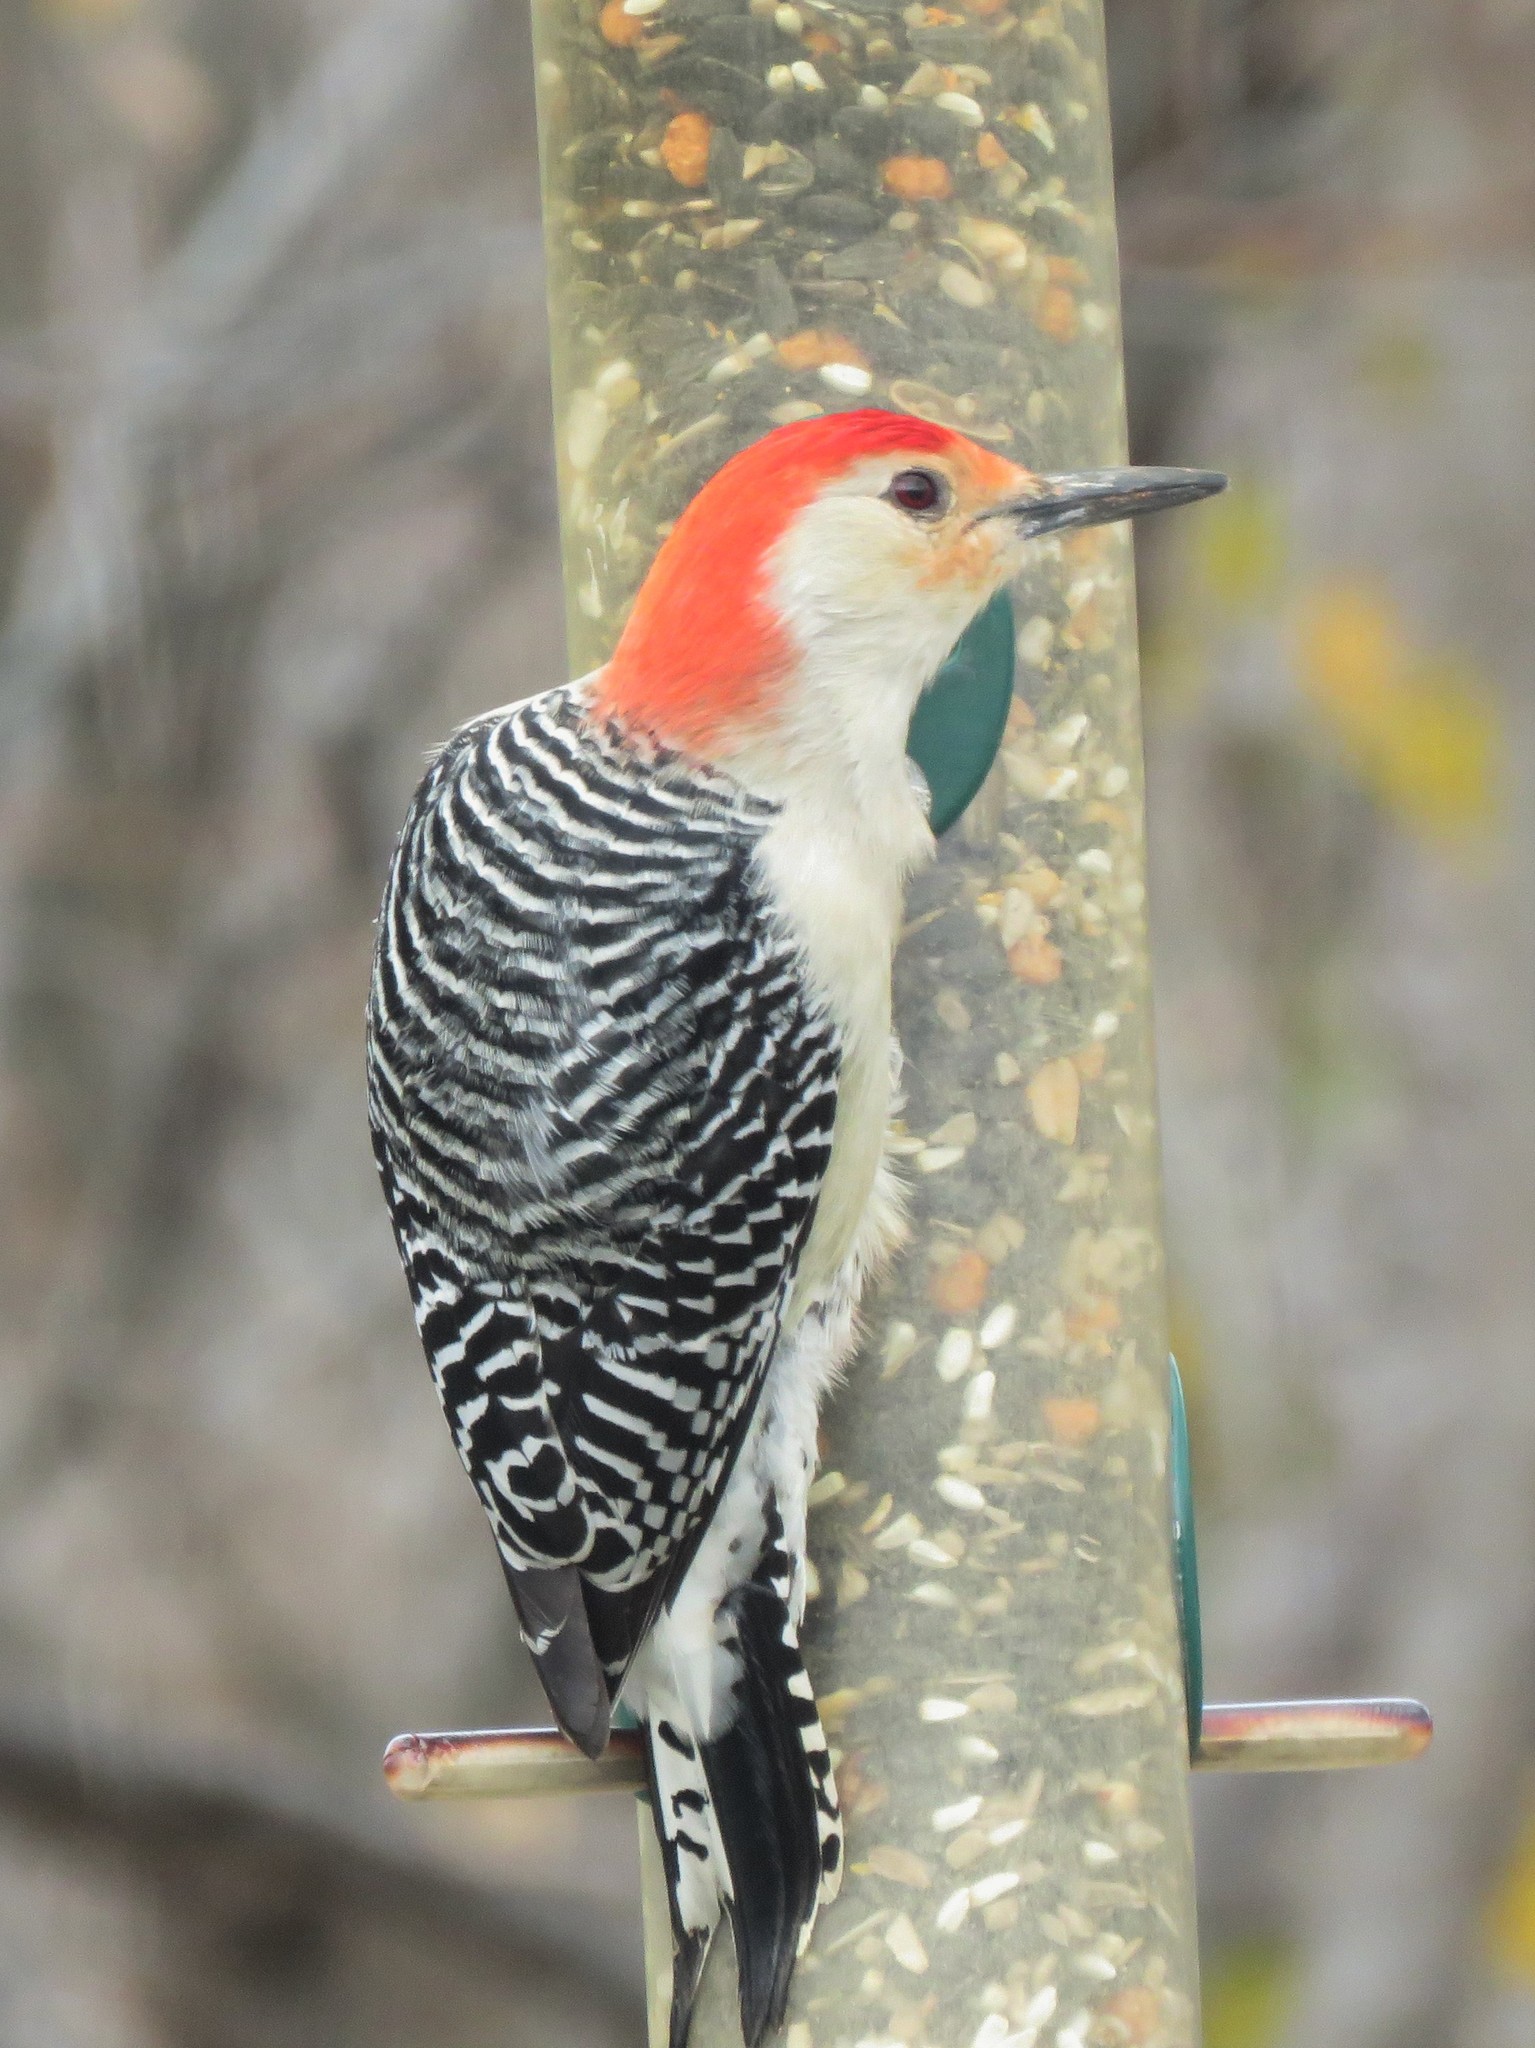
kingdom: Animalia
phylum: Chordata
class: Aves
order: Piciformes
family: Picidae
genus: Melanerpes
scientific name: Melanerpes carolinus
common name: Red-bellied woodpecker
